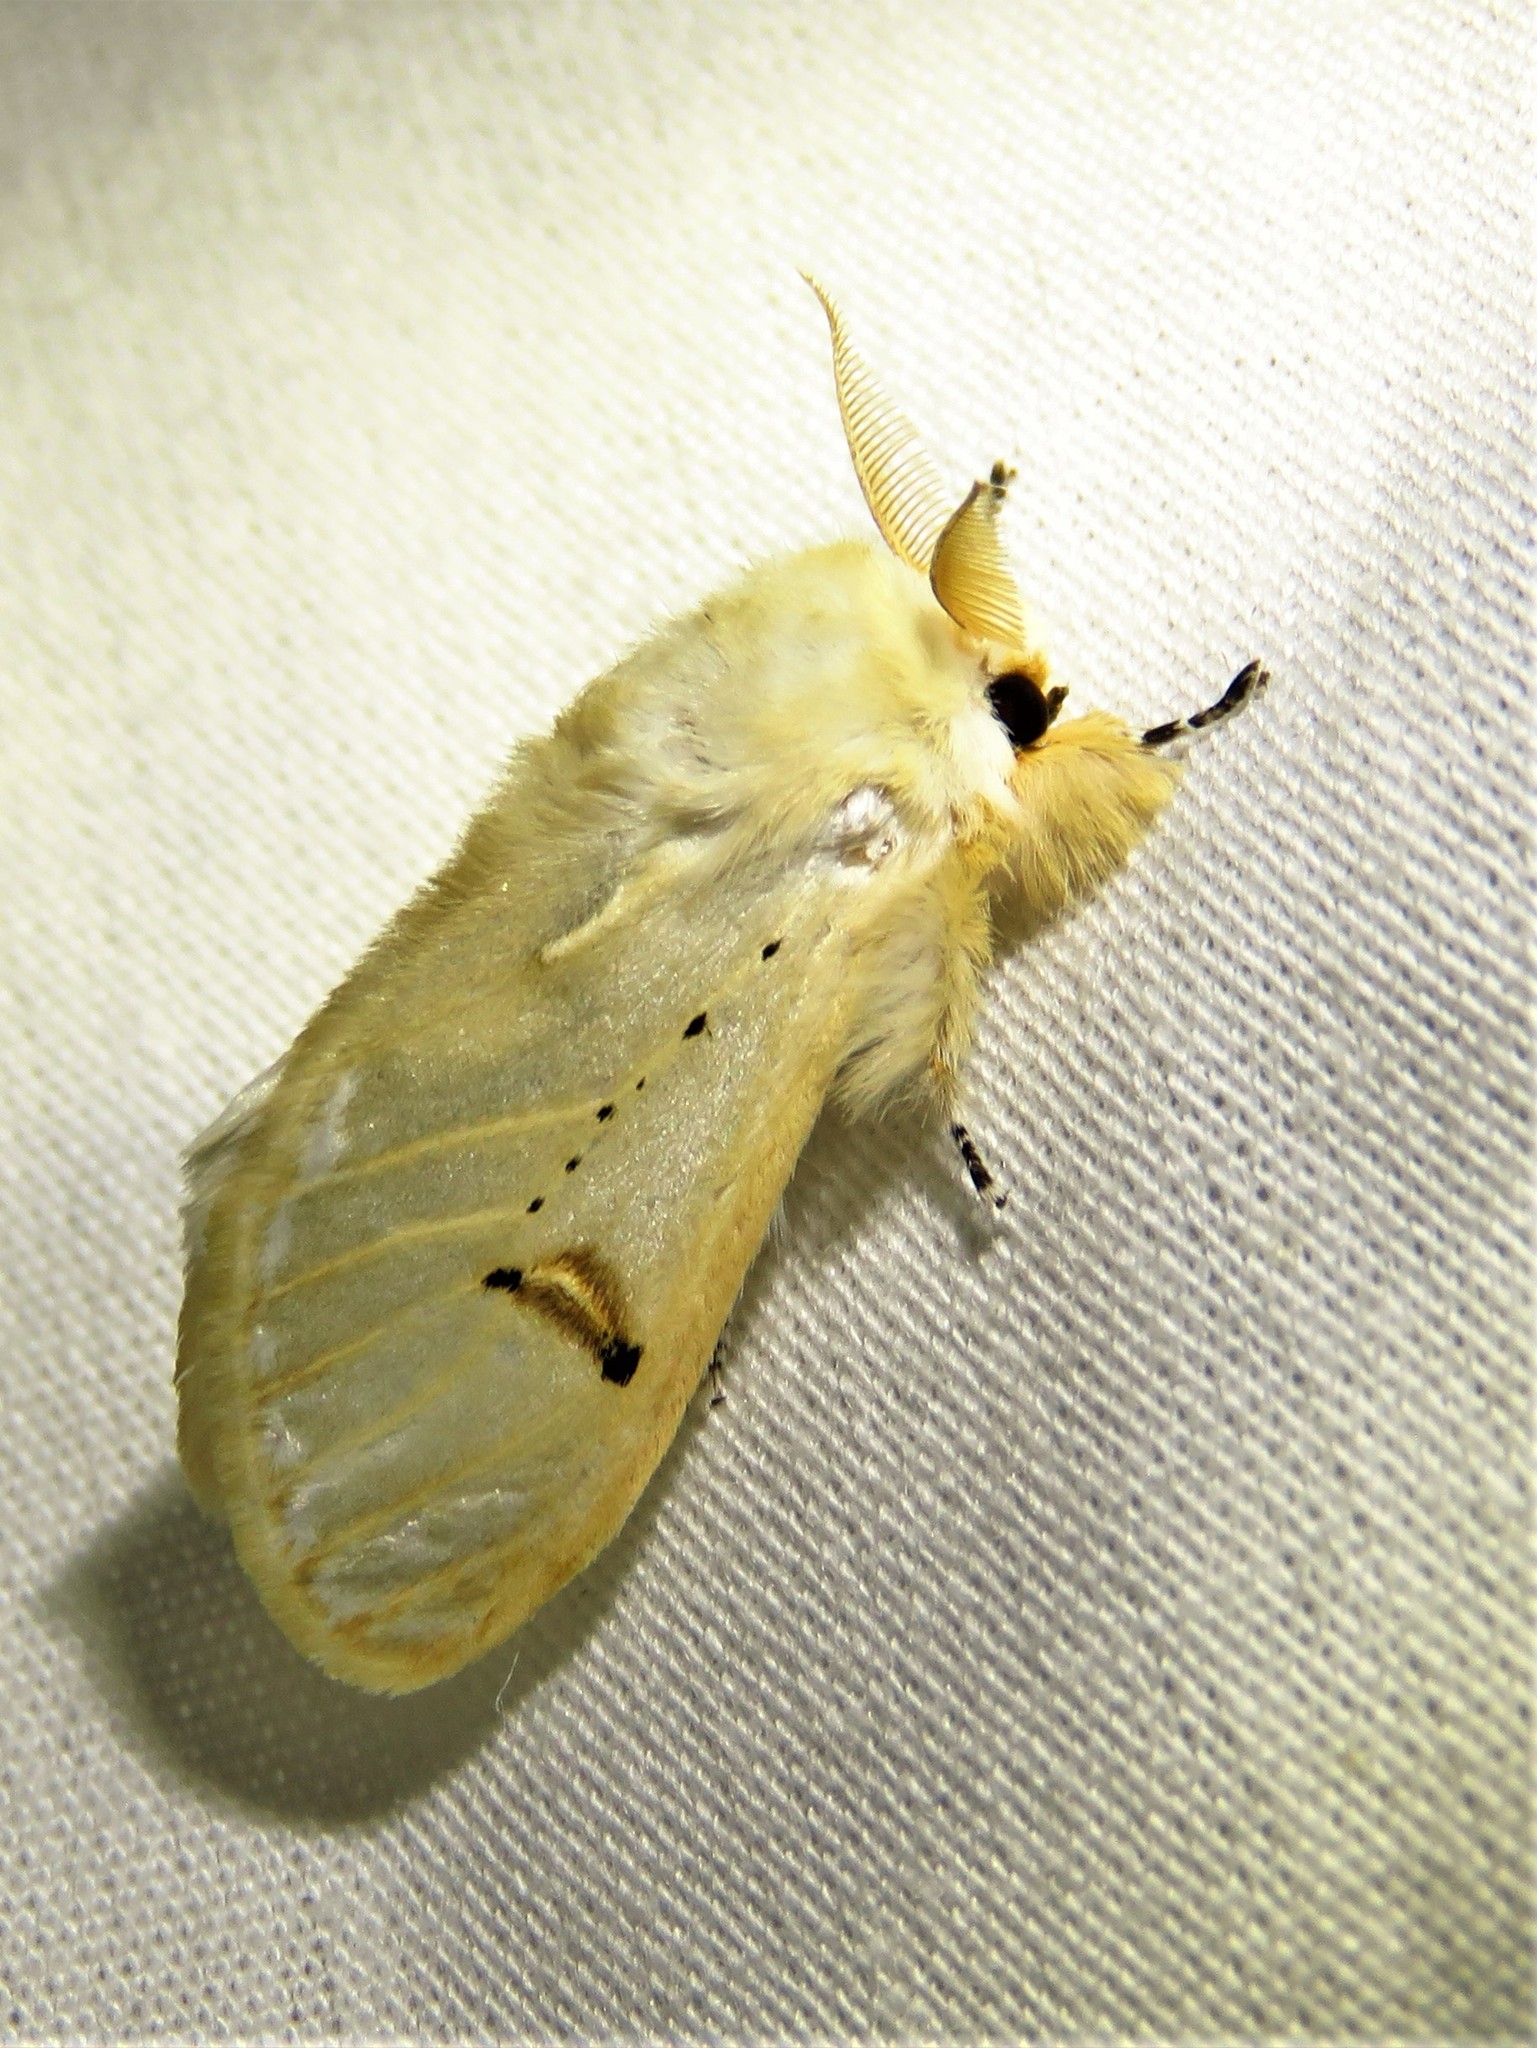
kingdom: Animalia
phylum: Arthropoda
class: Insecta
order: Lepidoptera
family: Erebidae
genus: Naroma
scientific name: Naroma varipes
